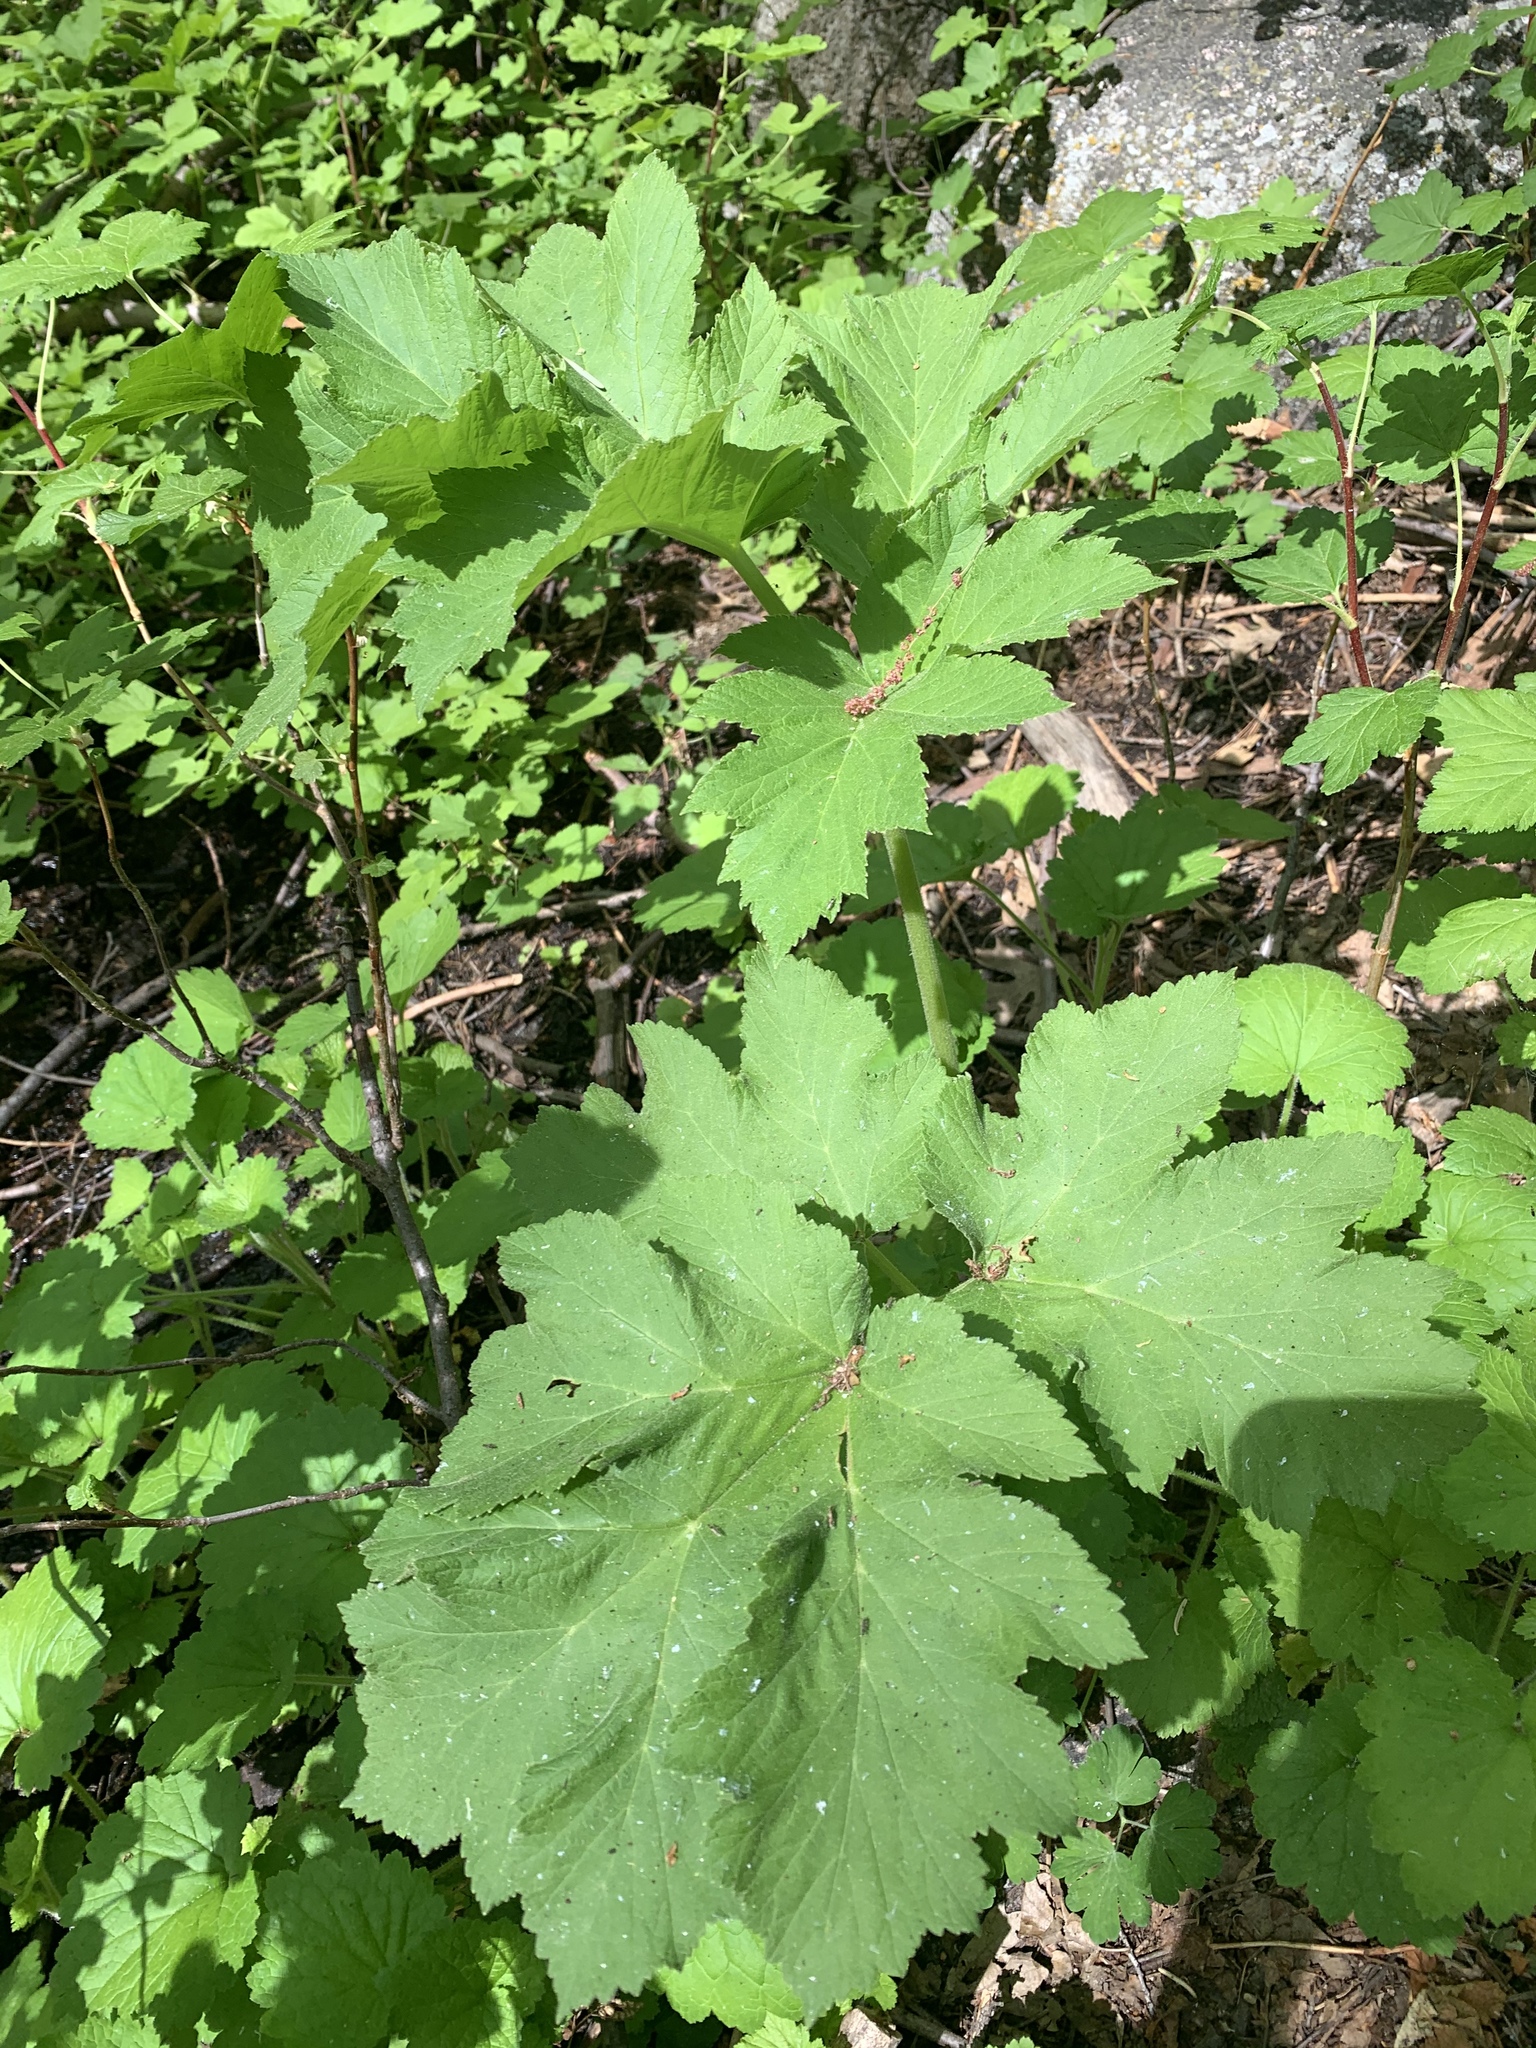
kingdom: Plantae
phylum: Tracheophyta
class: Magnoliopsida
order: Apiales
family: Apiaceae
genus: Heracleum
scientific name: Heracleum maximum
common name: American cow parsnip
